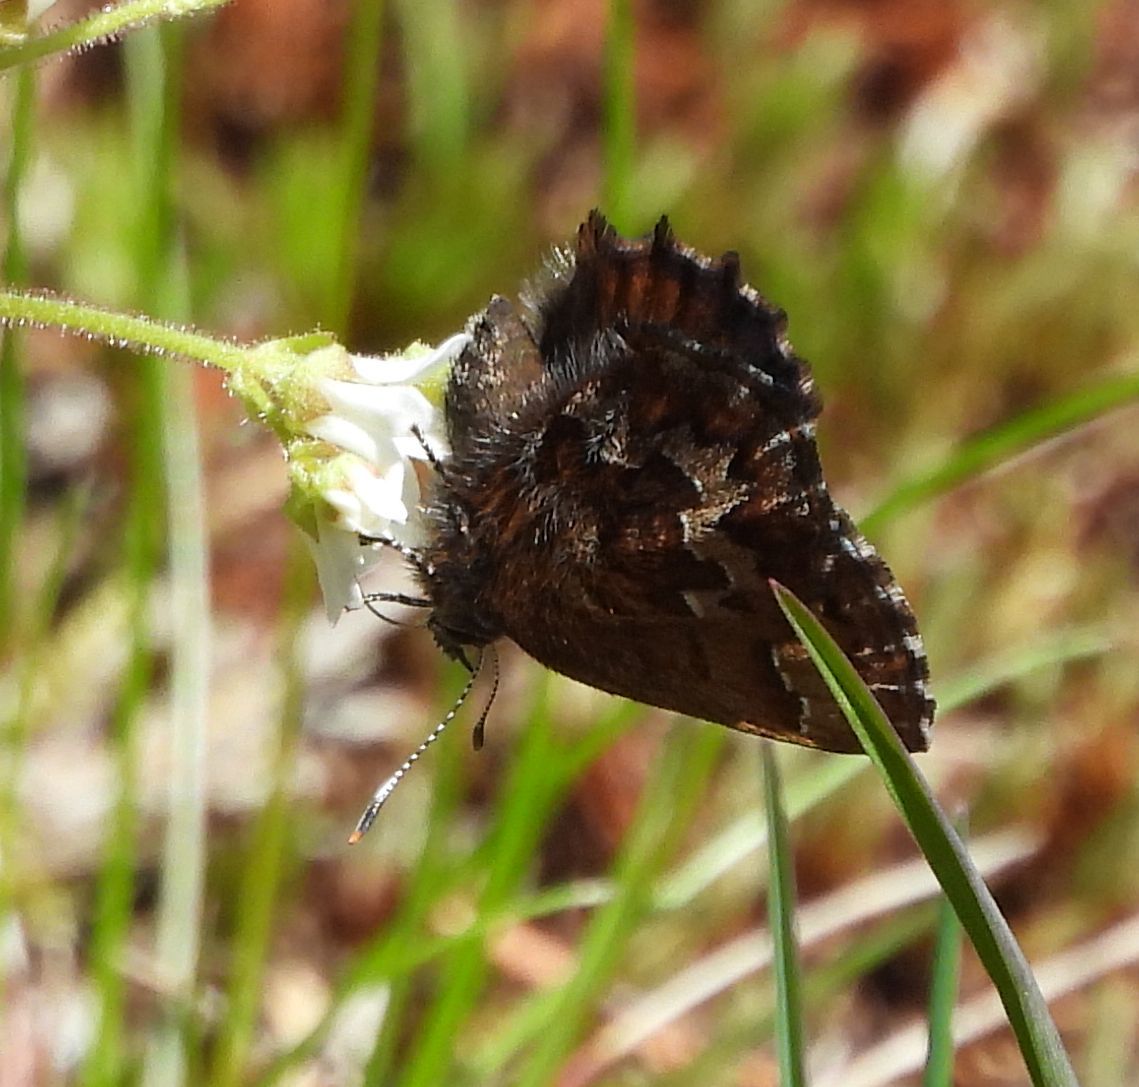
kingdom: Animalia
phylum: Arthropoda
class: Insecta
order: Lepidoptera
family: Lycaenidae
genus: Incisalia
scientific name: Incisalia niphon
